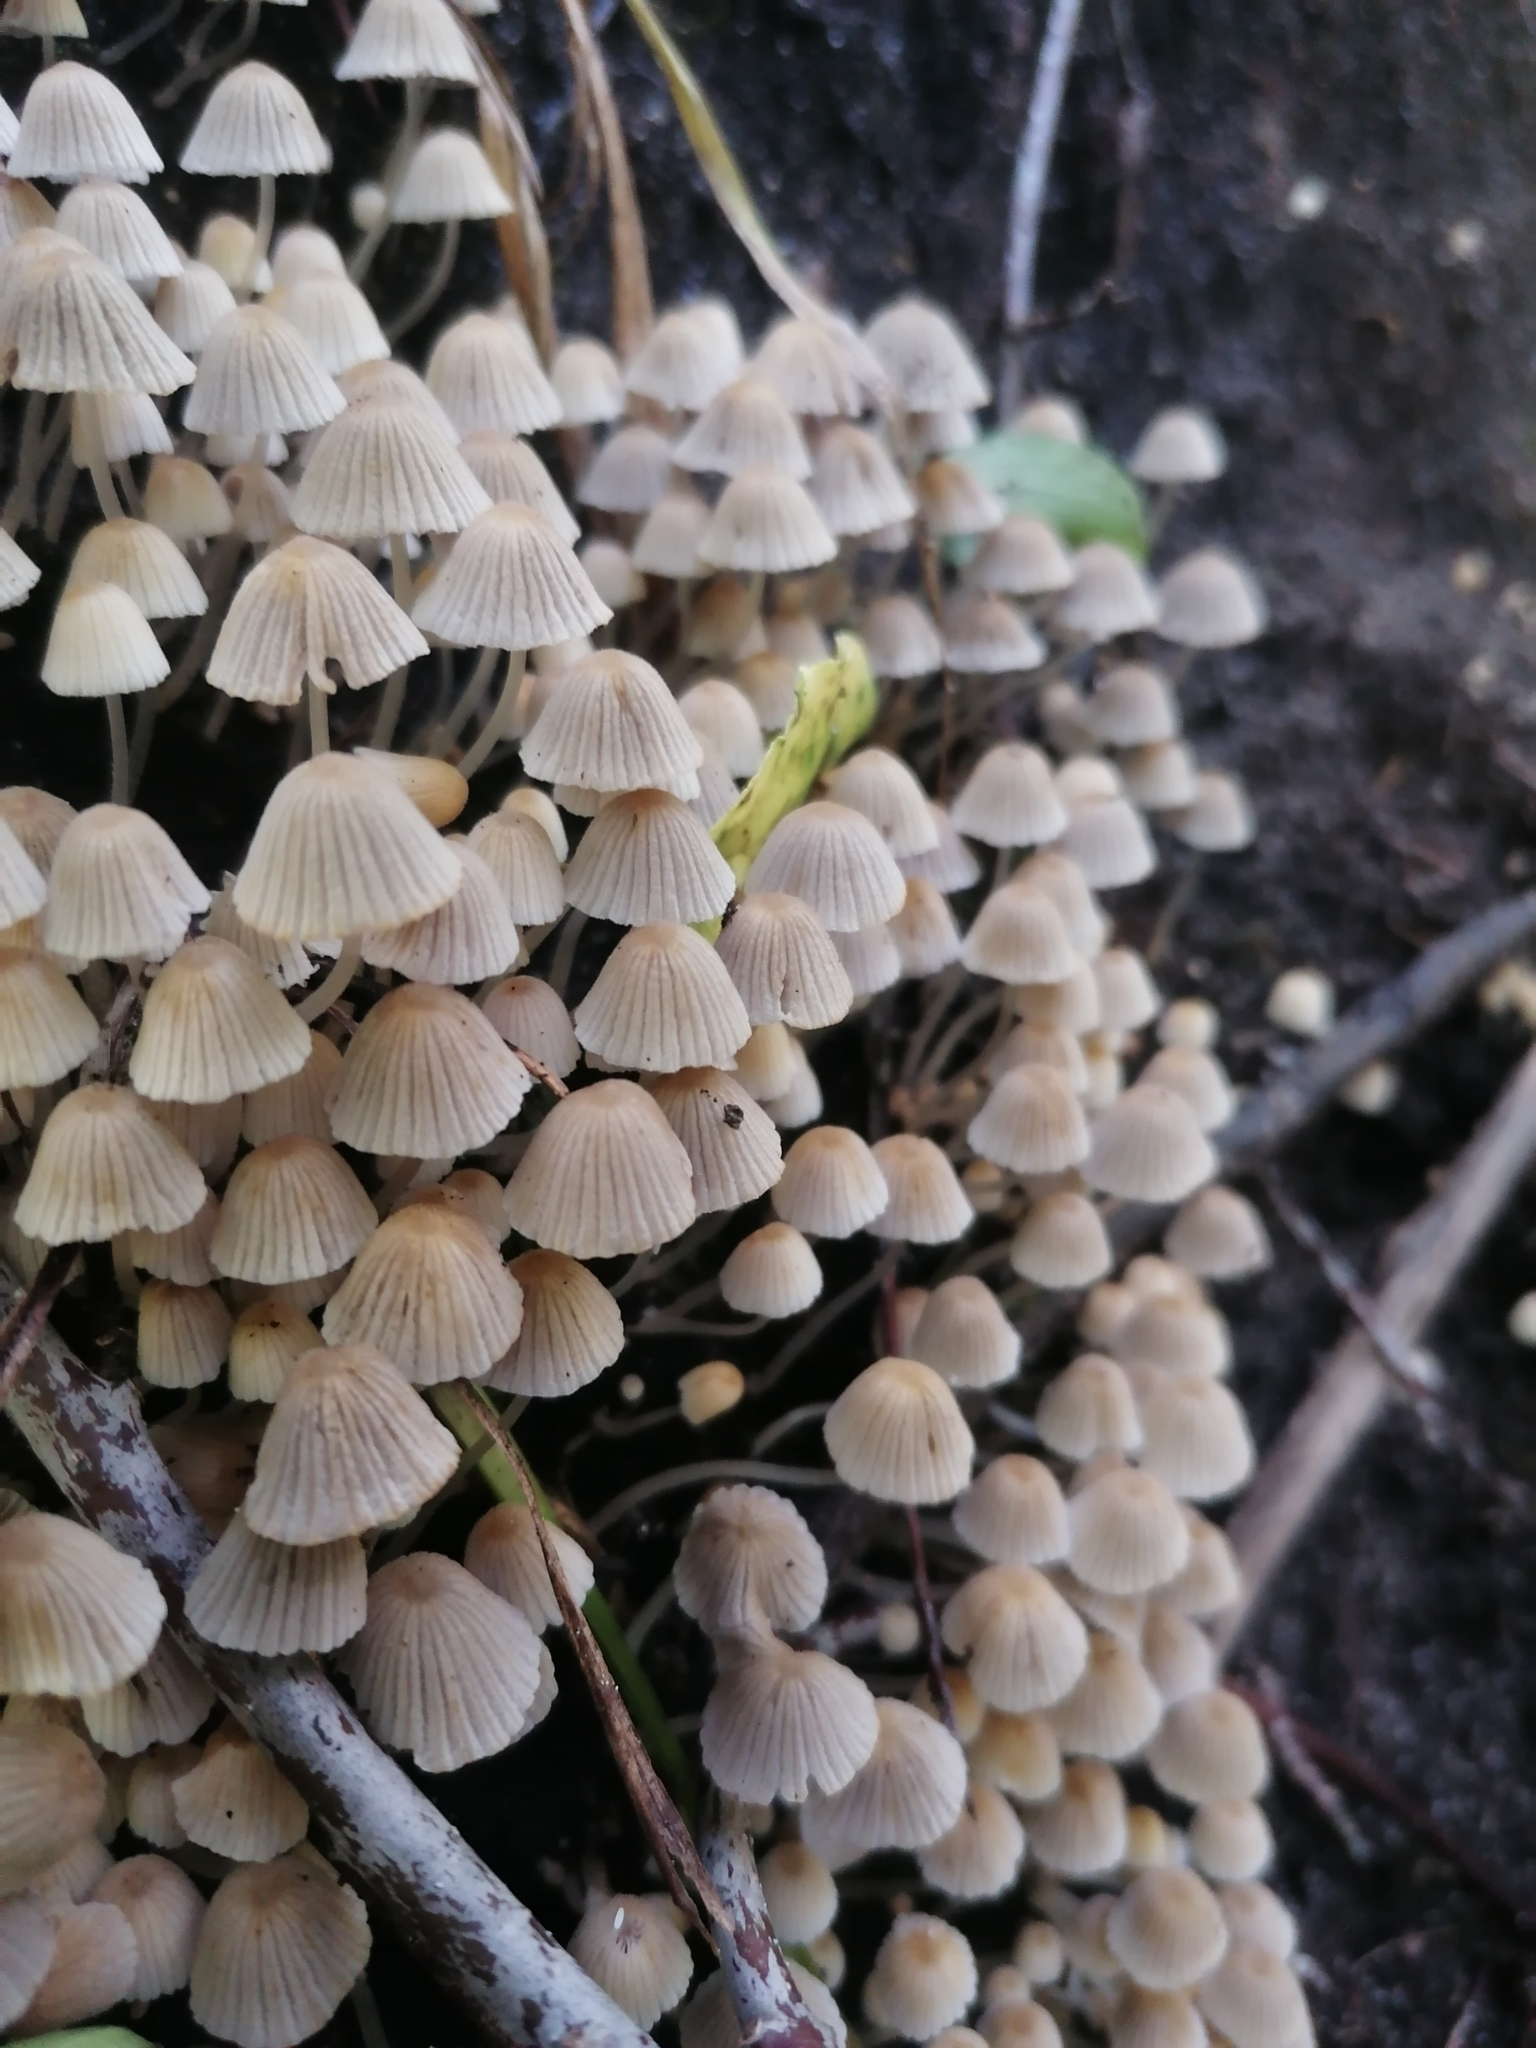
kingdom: Fungi
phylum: Basidiomycota
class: Agaricomycetes
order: Agaricales
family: Psathyrellaceae
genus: Coprinellus
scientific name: Coprinellus disseminatus
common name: Fairies' bonnets
